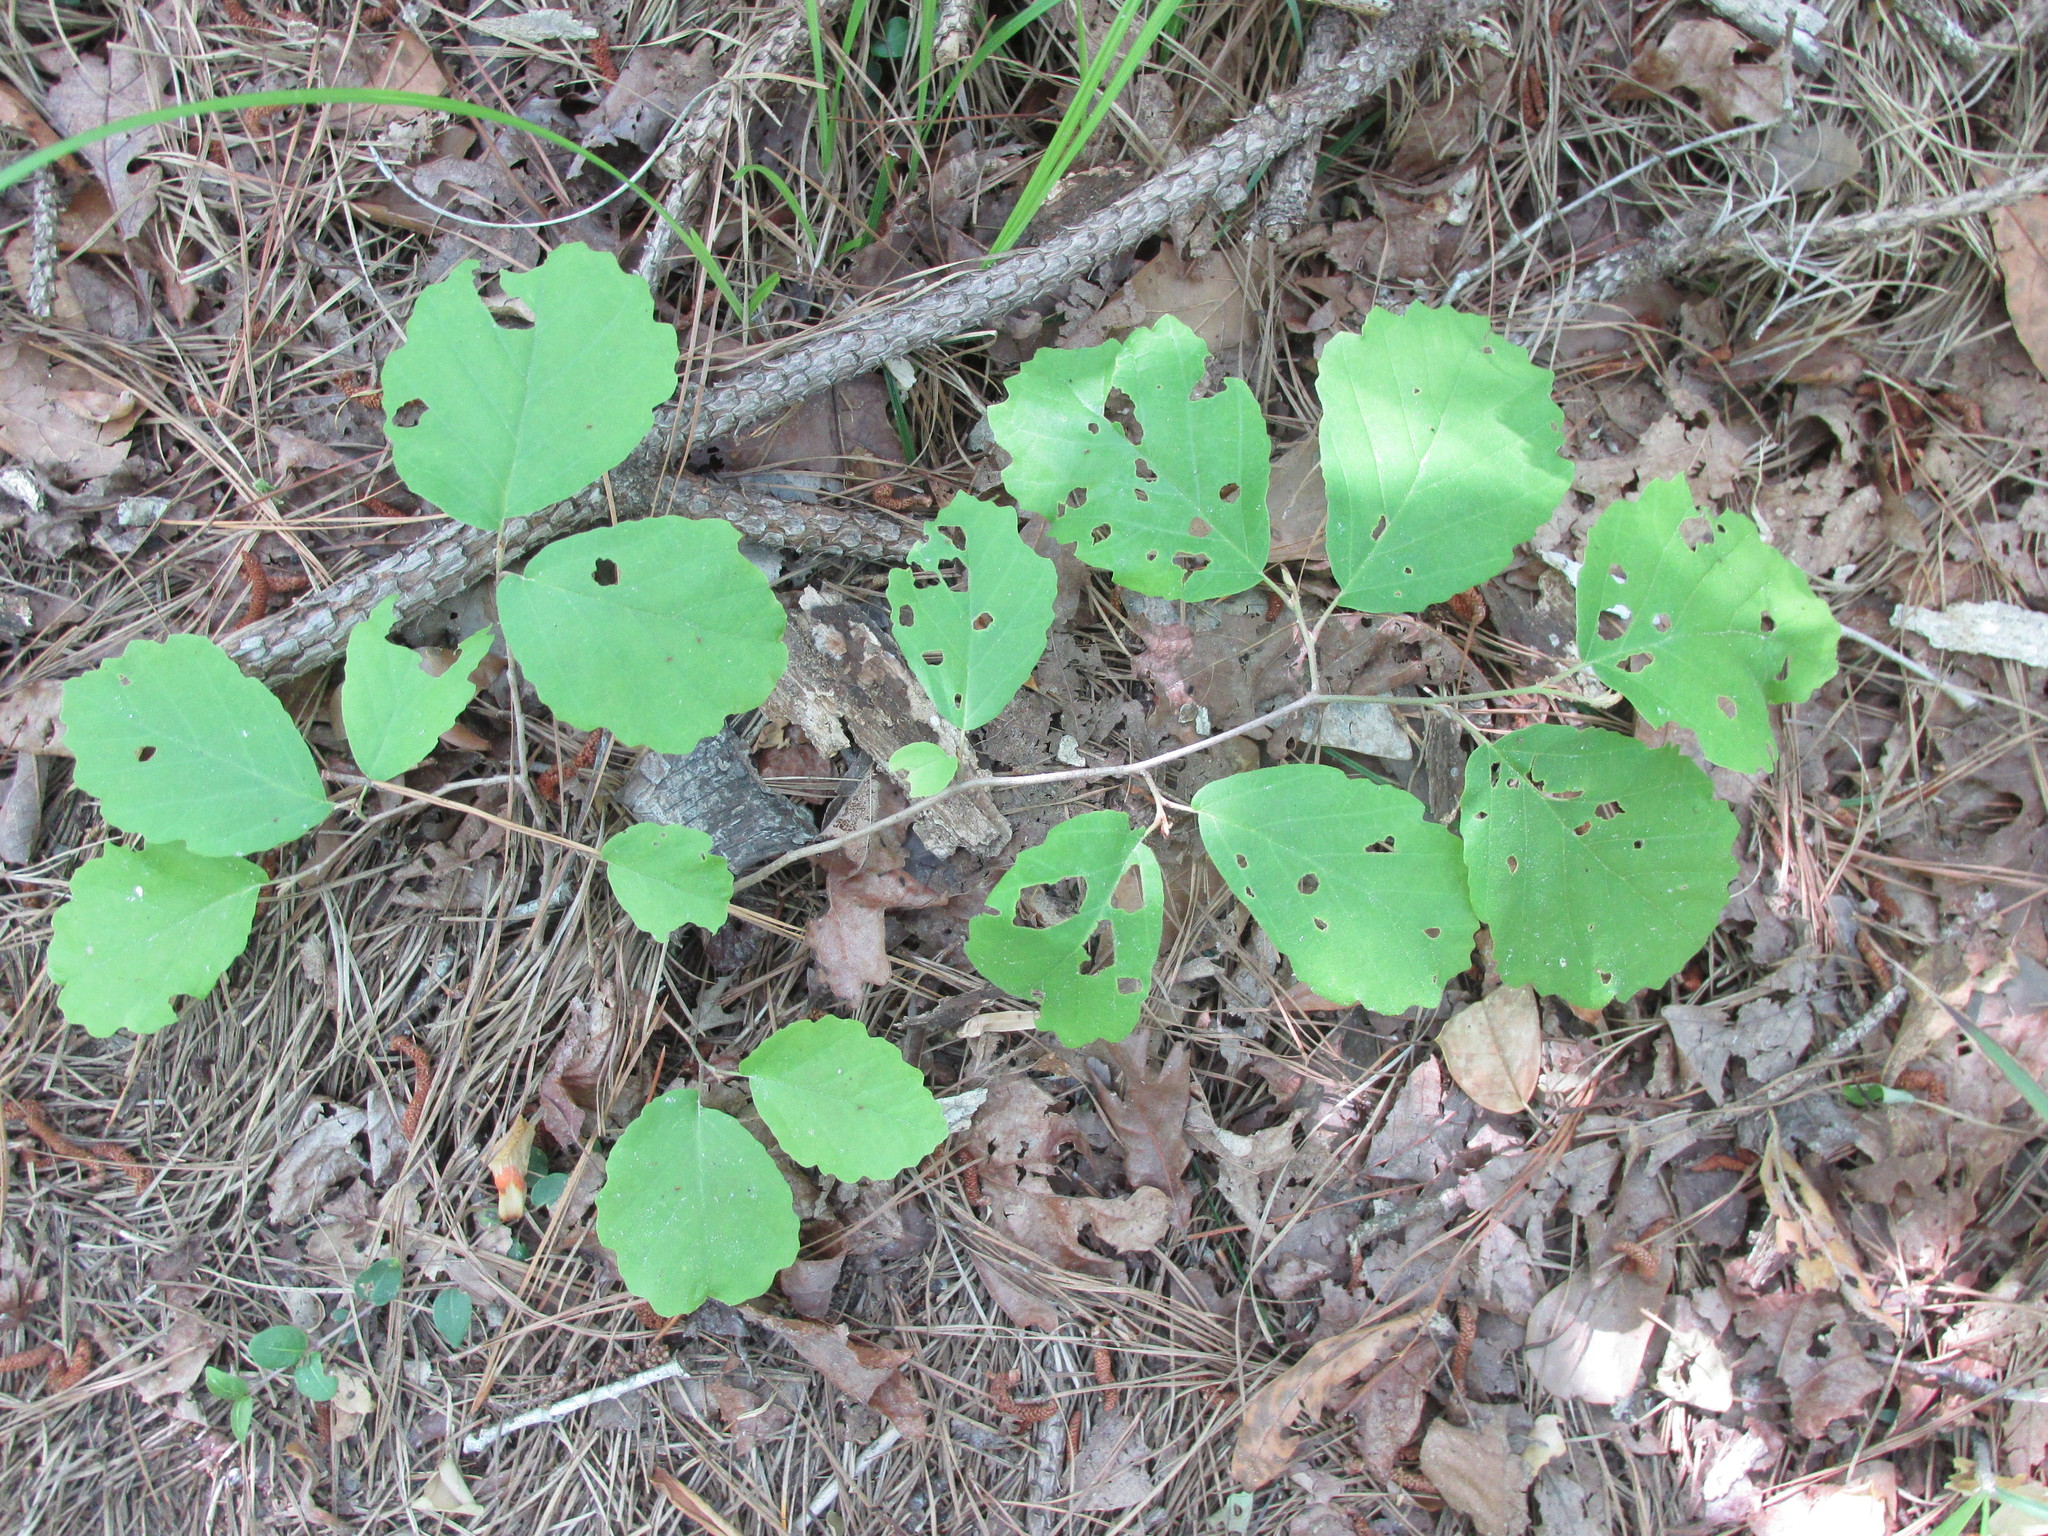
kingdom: Plantae
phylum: Tracheophyta
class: Magnoliopsida
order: Saxifragales
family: Hamamelidaceae
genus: Hamamelis
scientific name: Hamamelis virginiana
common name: Witch-hazel
